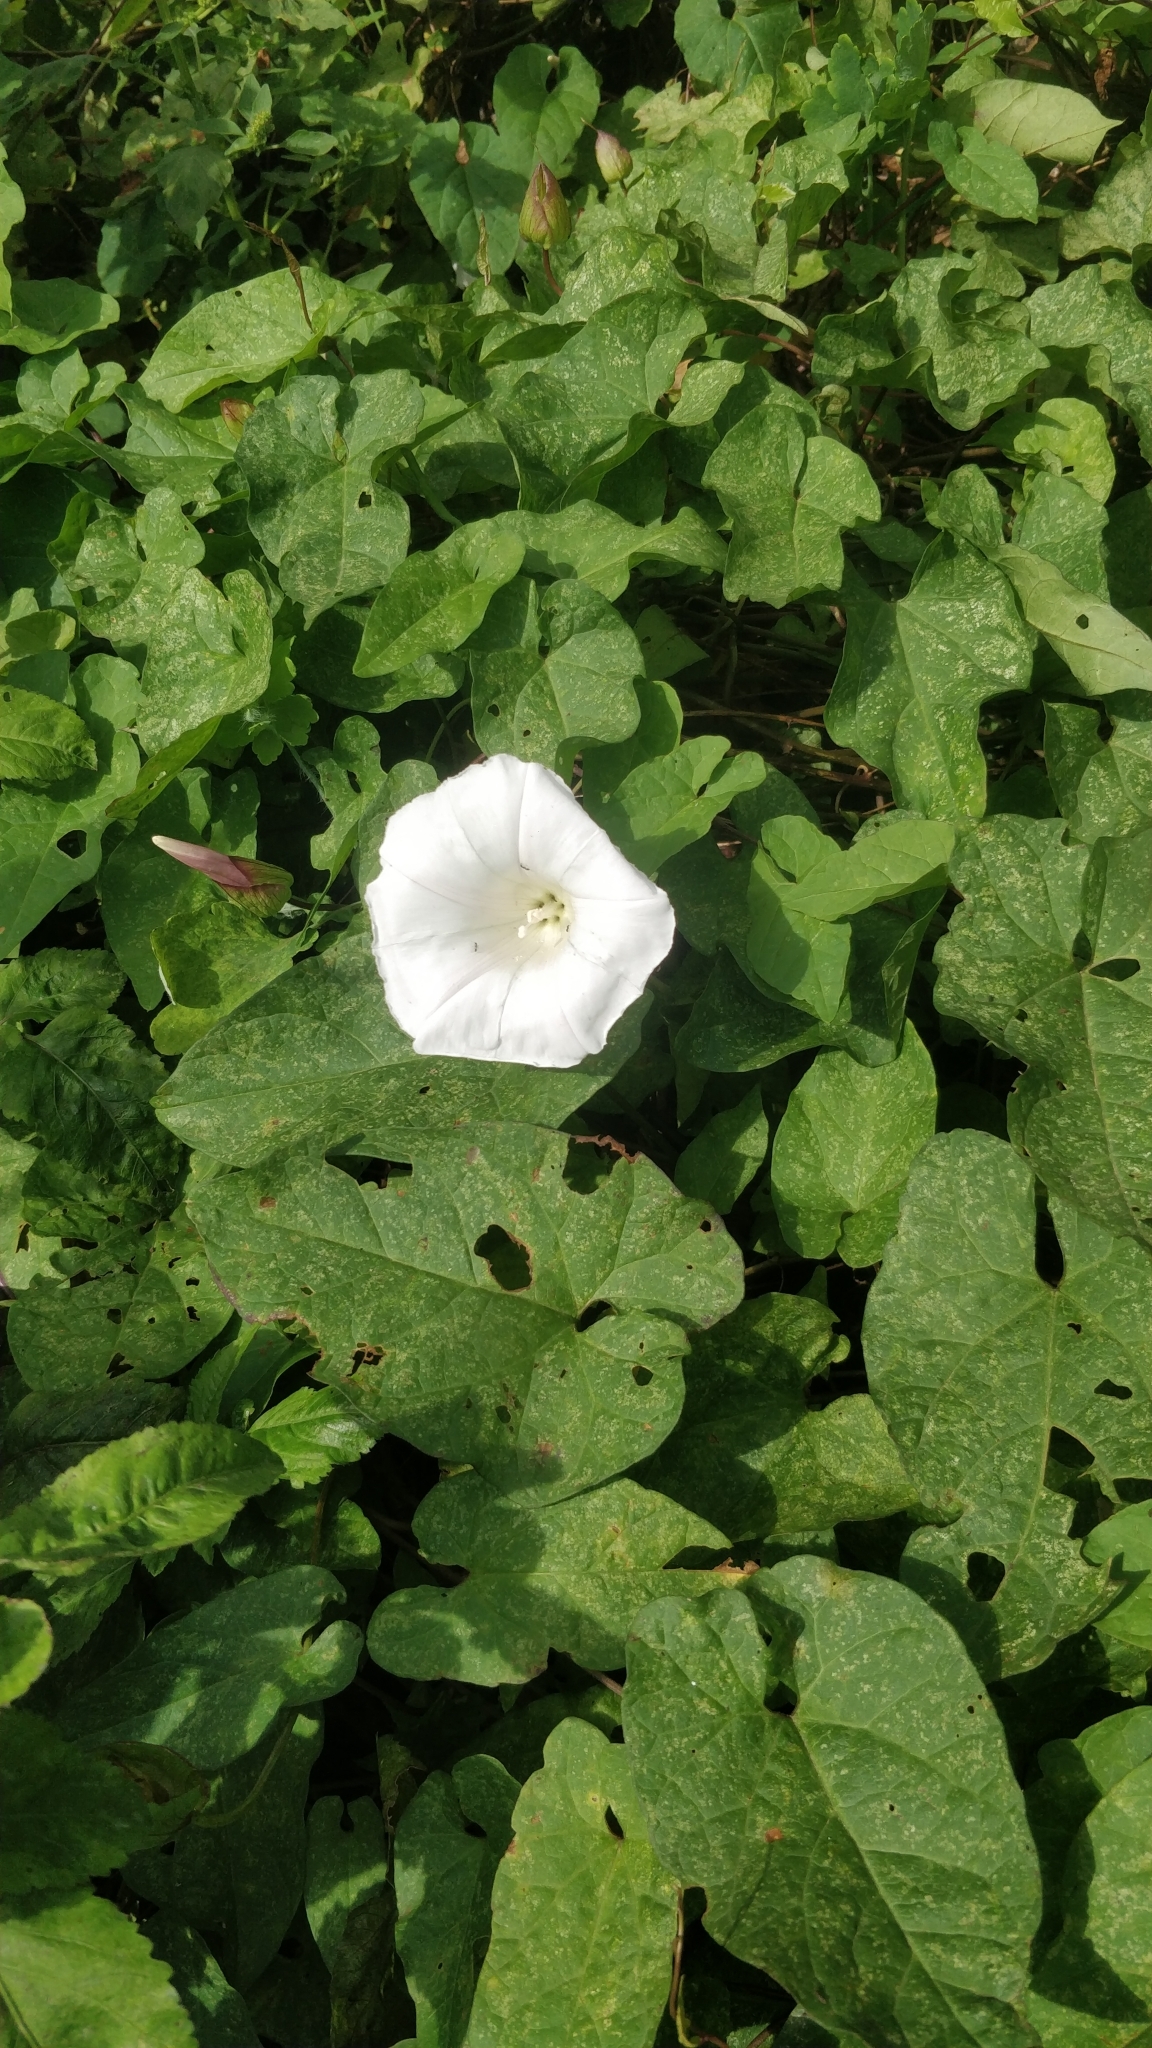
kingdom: Plantae
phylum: Tracheophyta
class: Magnoliopsida
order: Solanales
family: Convolvulaceae
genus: Calystegia
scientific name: Calystegia silvatica
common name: Large bindweed
